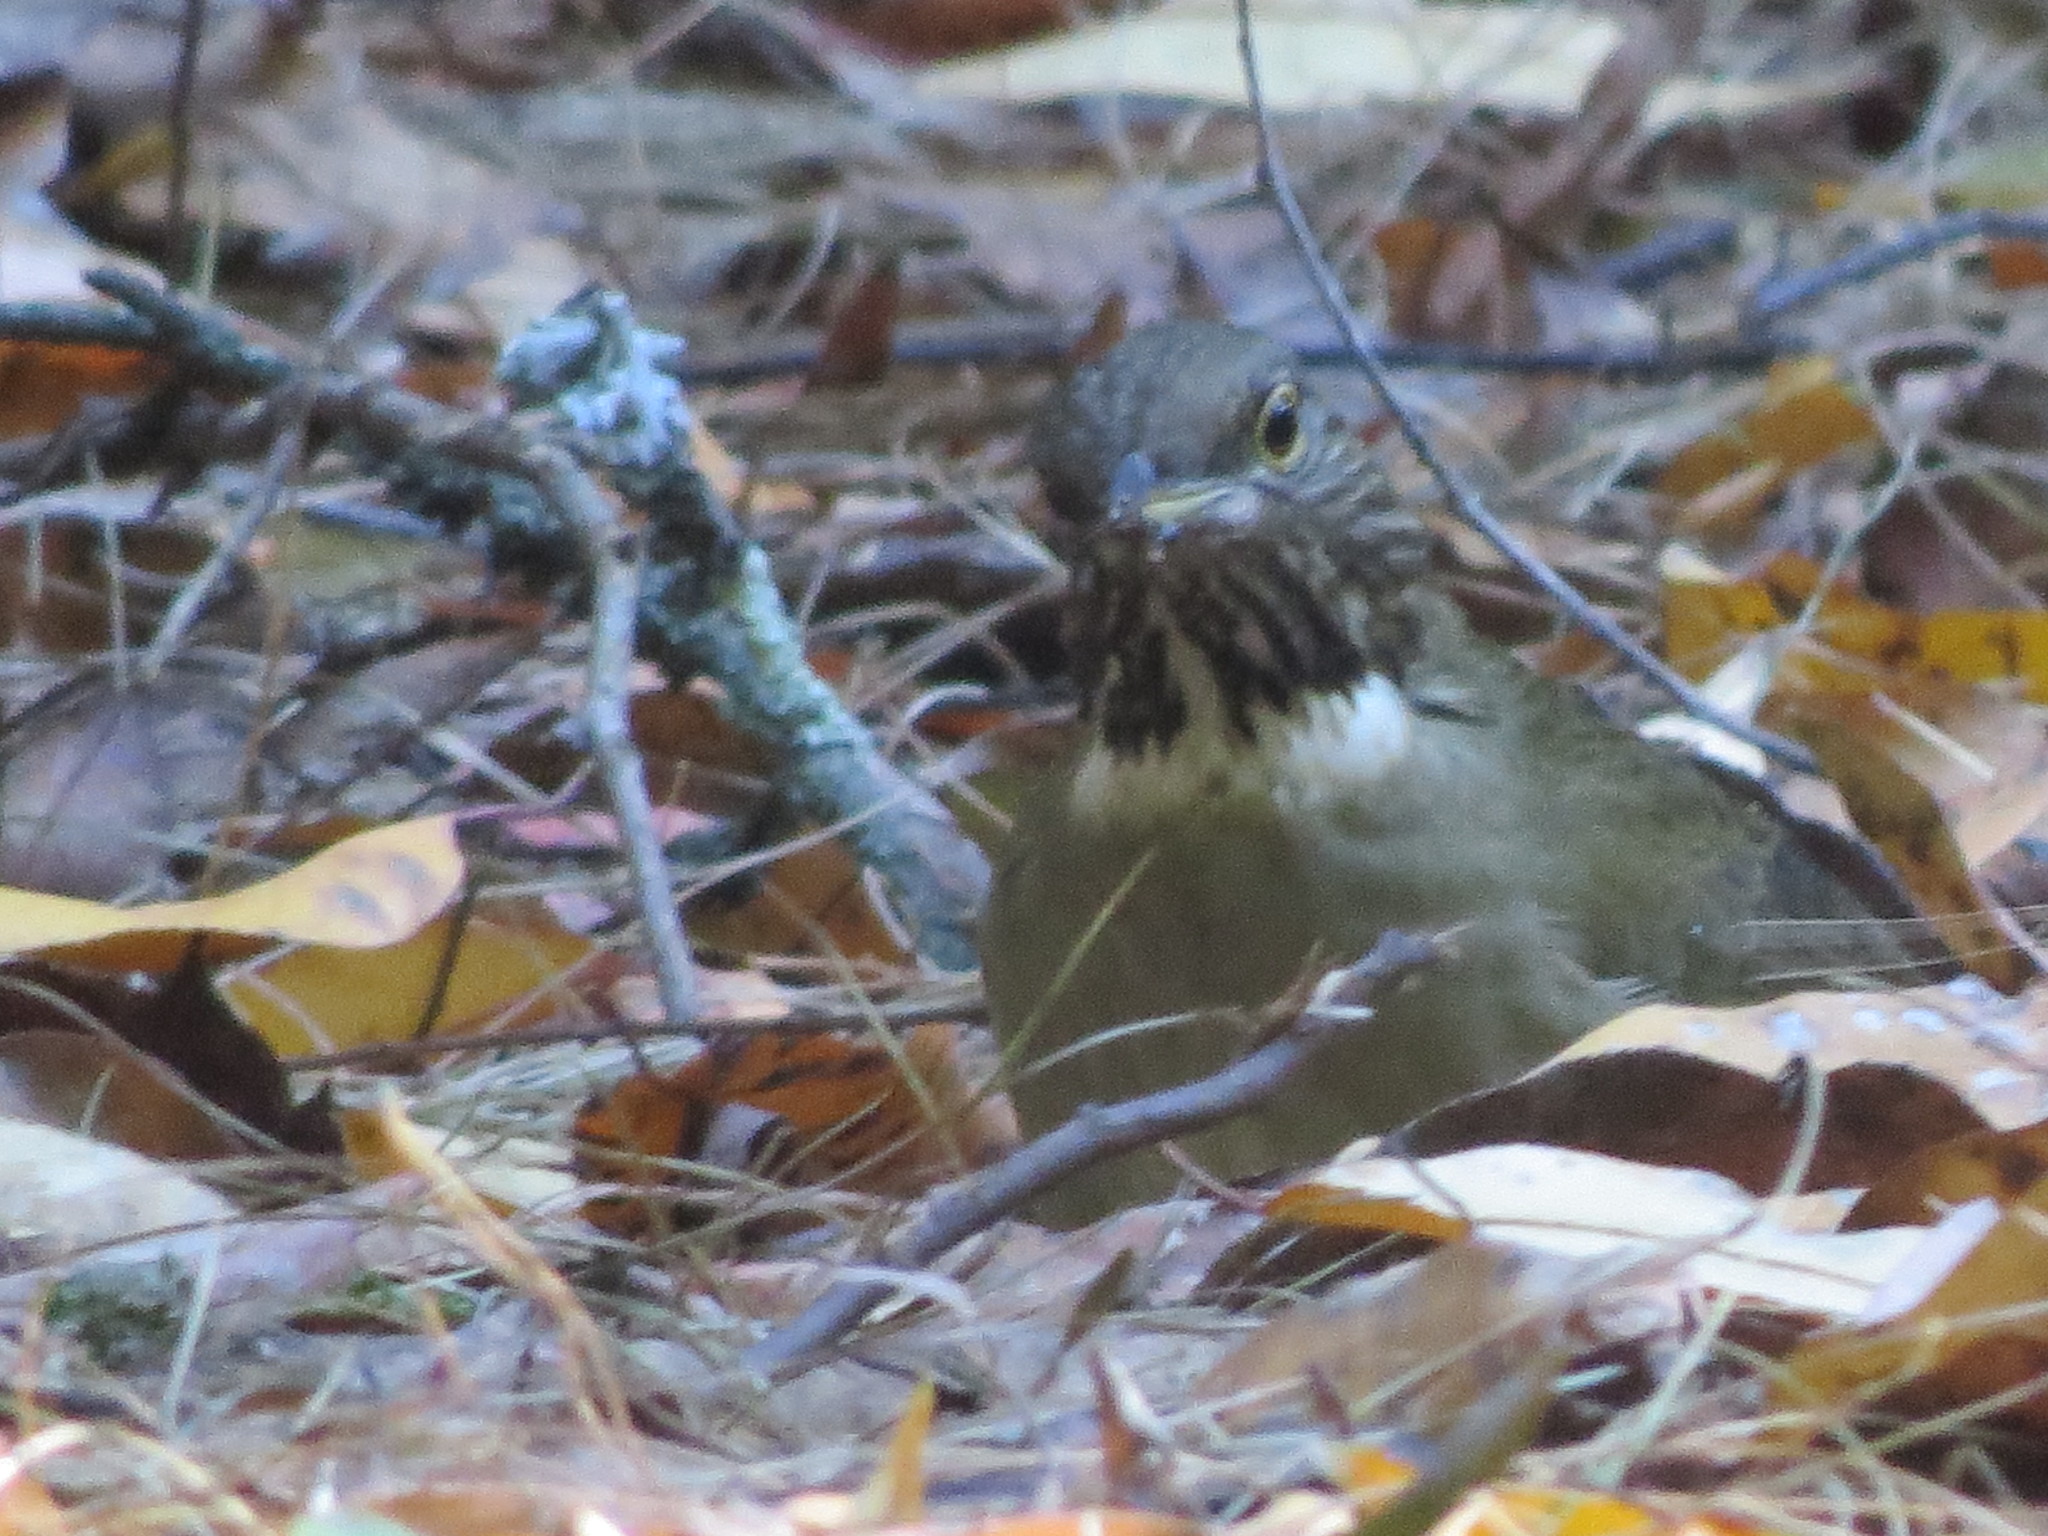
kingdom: Animalia
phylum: Chordata
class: Aves
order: Passeriformes
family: Turdidae
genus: Turdus
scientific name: Turdus assimilis
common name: White-throated thrush
